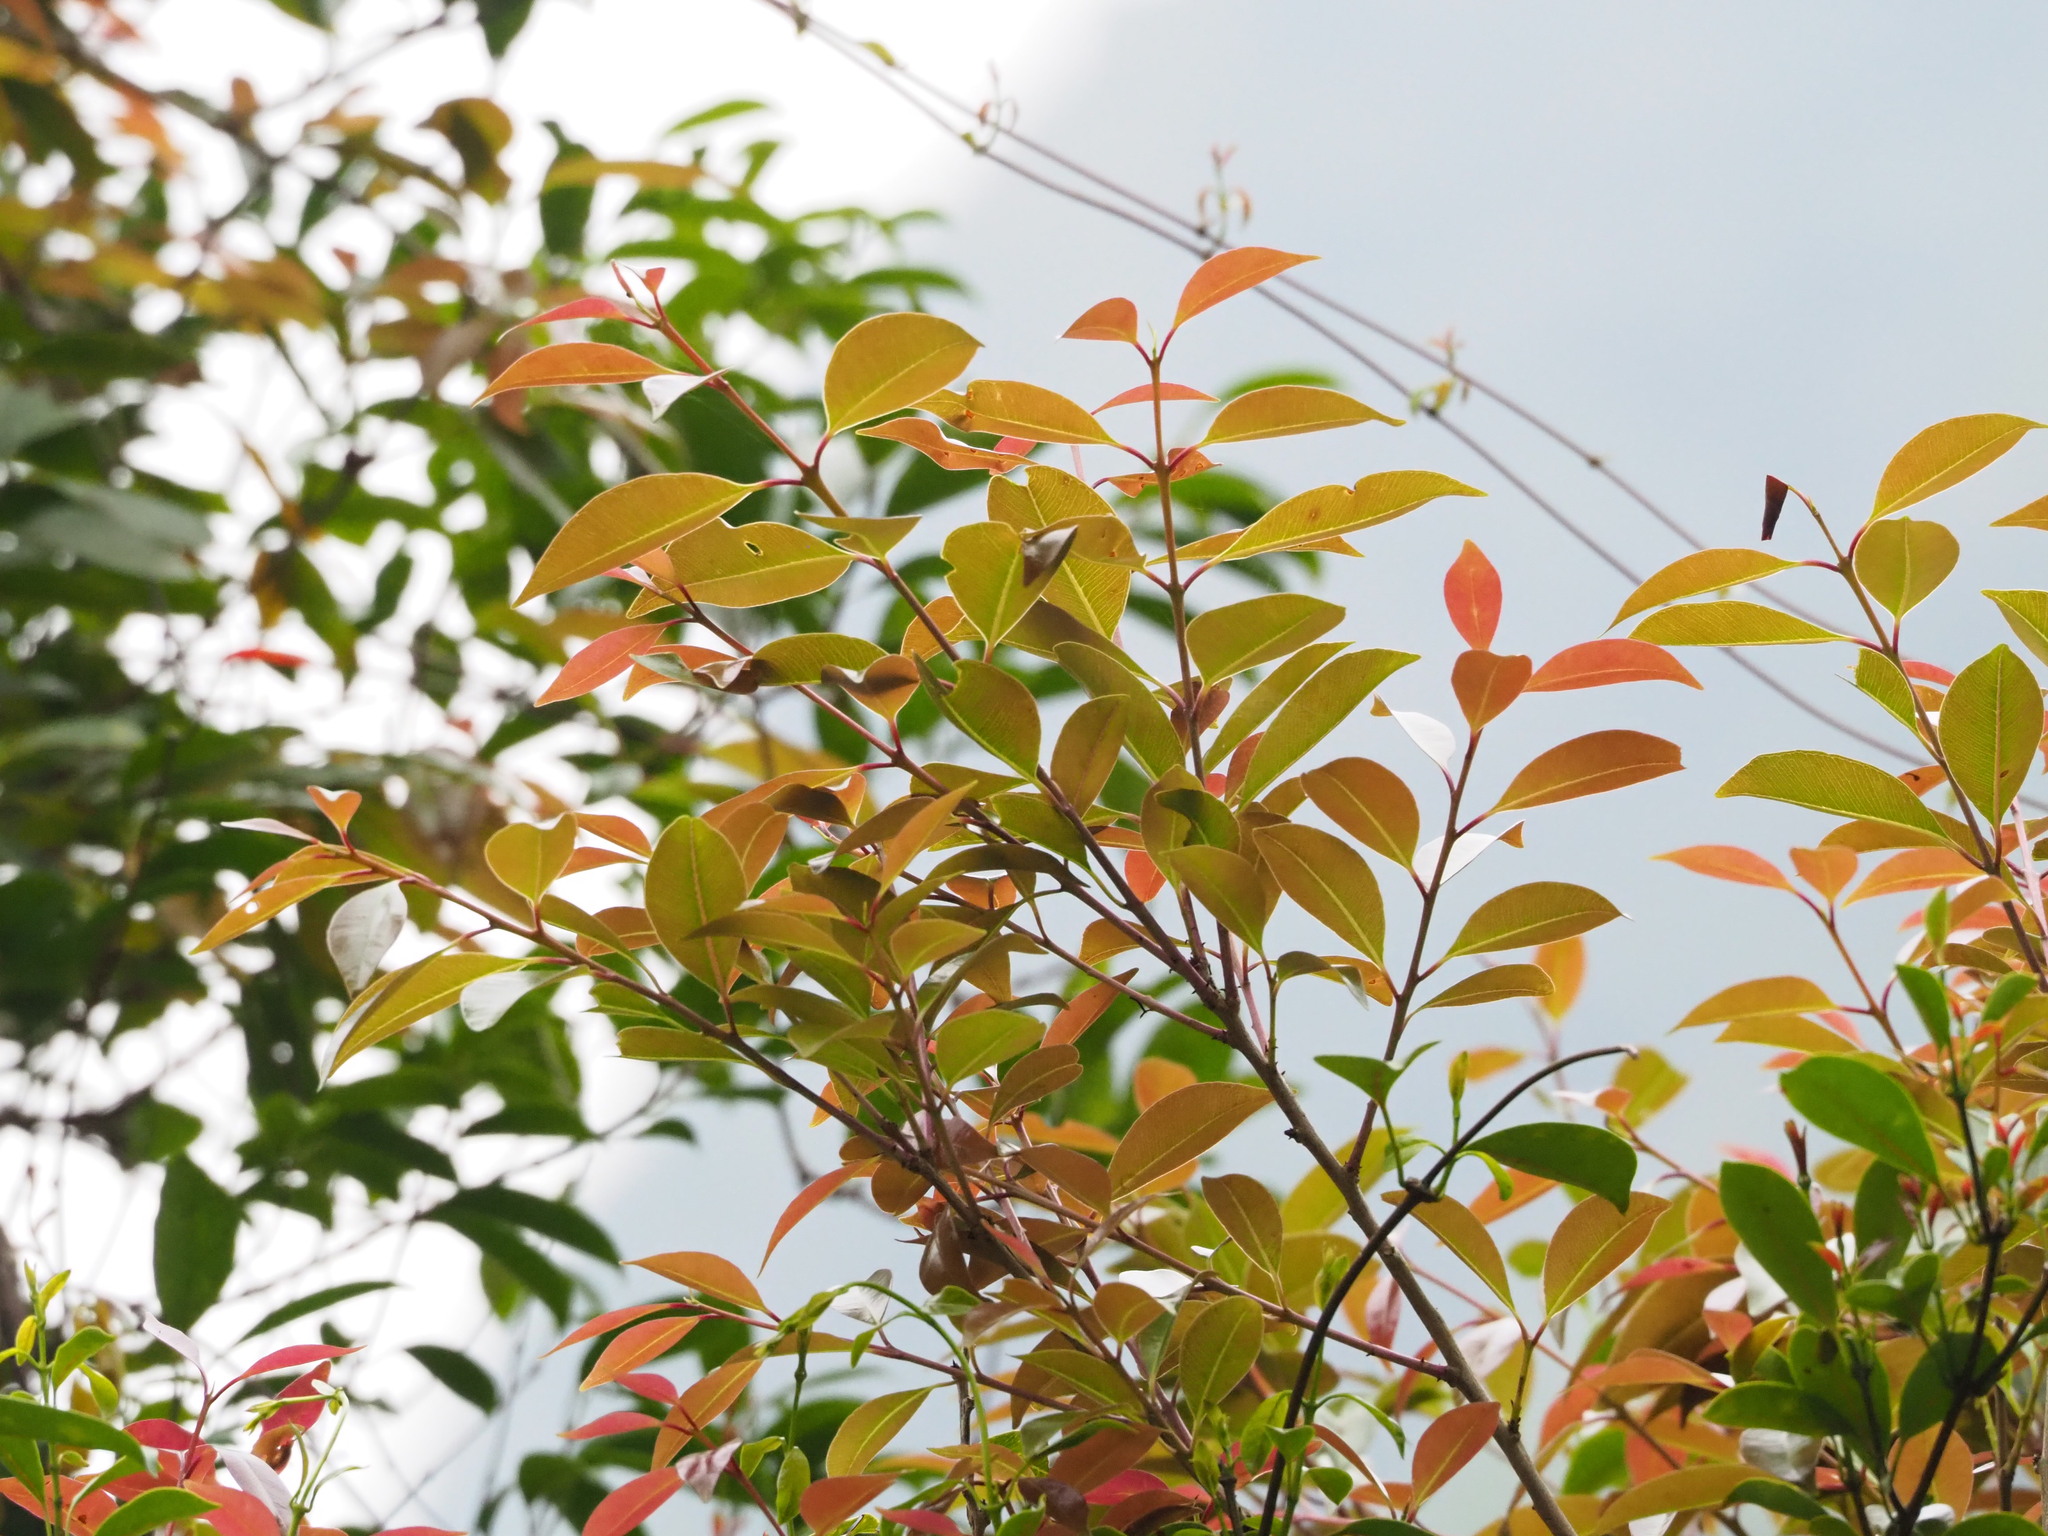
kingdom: Plantae
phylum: Tracheophyta
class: Magnoliopsida
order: Gentianales
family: Apocynaceae
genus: Urceola
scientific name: Urceola rosea
